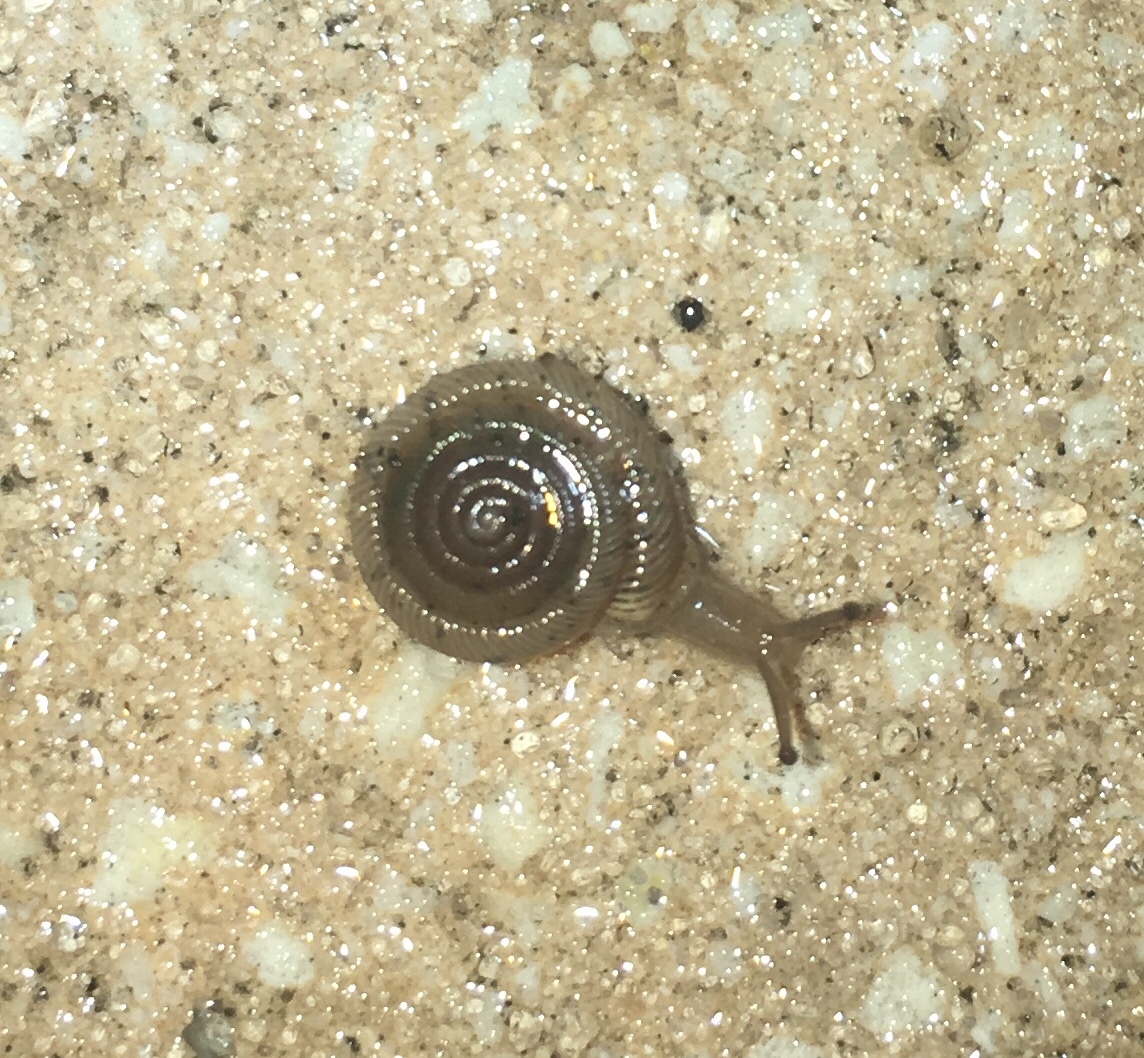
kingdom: Animalia
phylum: Mollusca
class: Gastropoda
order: Stylommatophora
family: Polygyridae
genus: Polygyra
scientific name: Polygyra cereolus
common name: Southern flatcone snail
